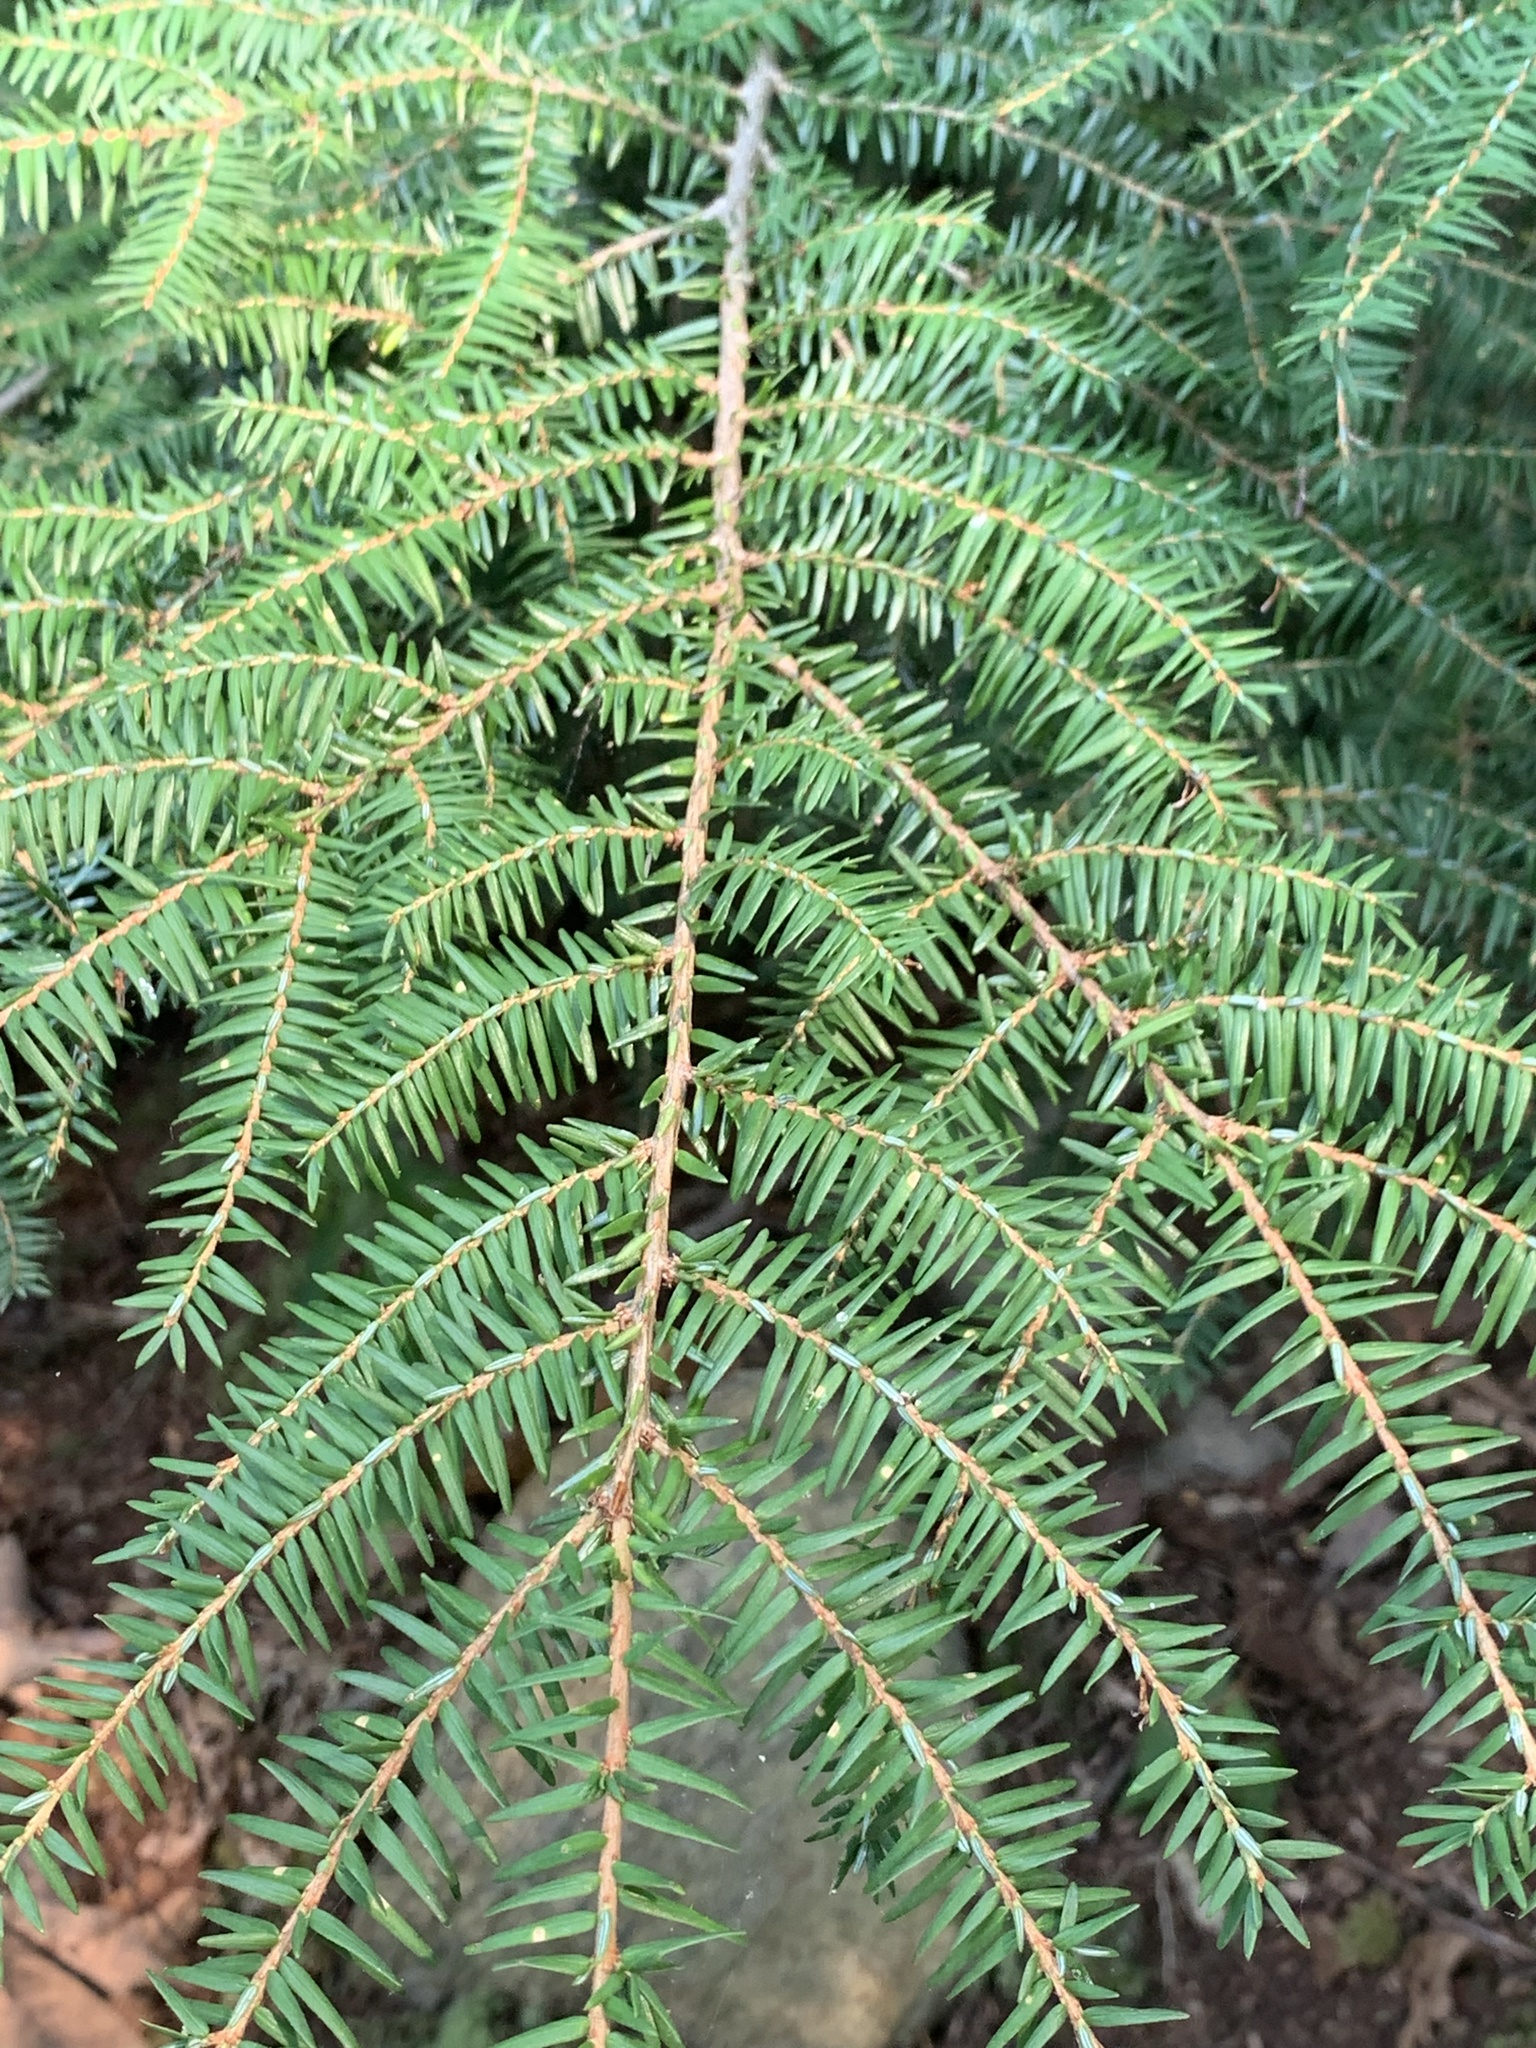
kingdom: Plantae
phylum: Tracheophyta
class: Pinopsida
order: Pinales
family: Pinaceae
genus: Tsuga
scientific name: Tsuga canadensis
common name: Eastern hemlock
